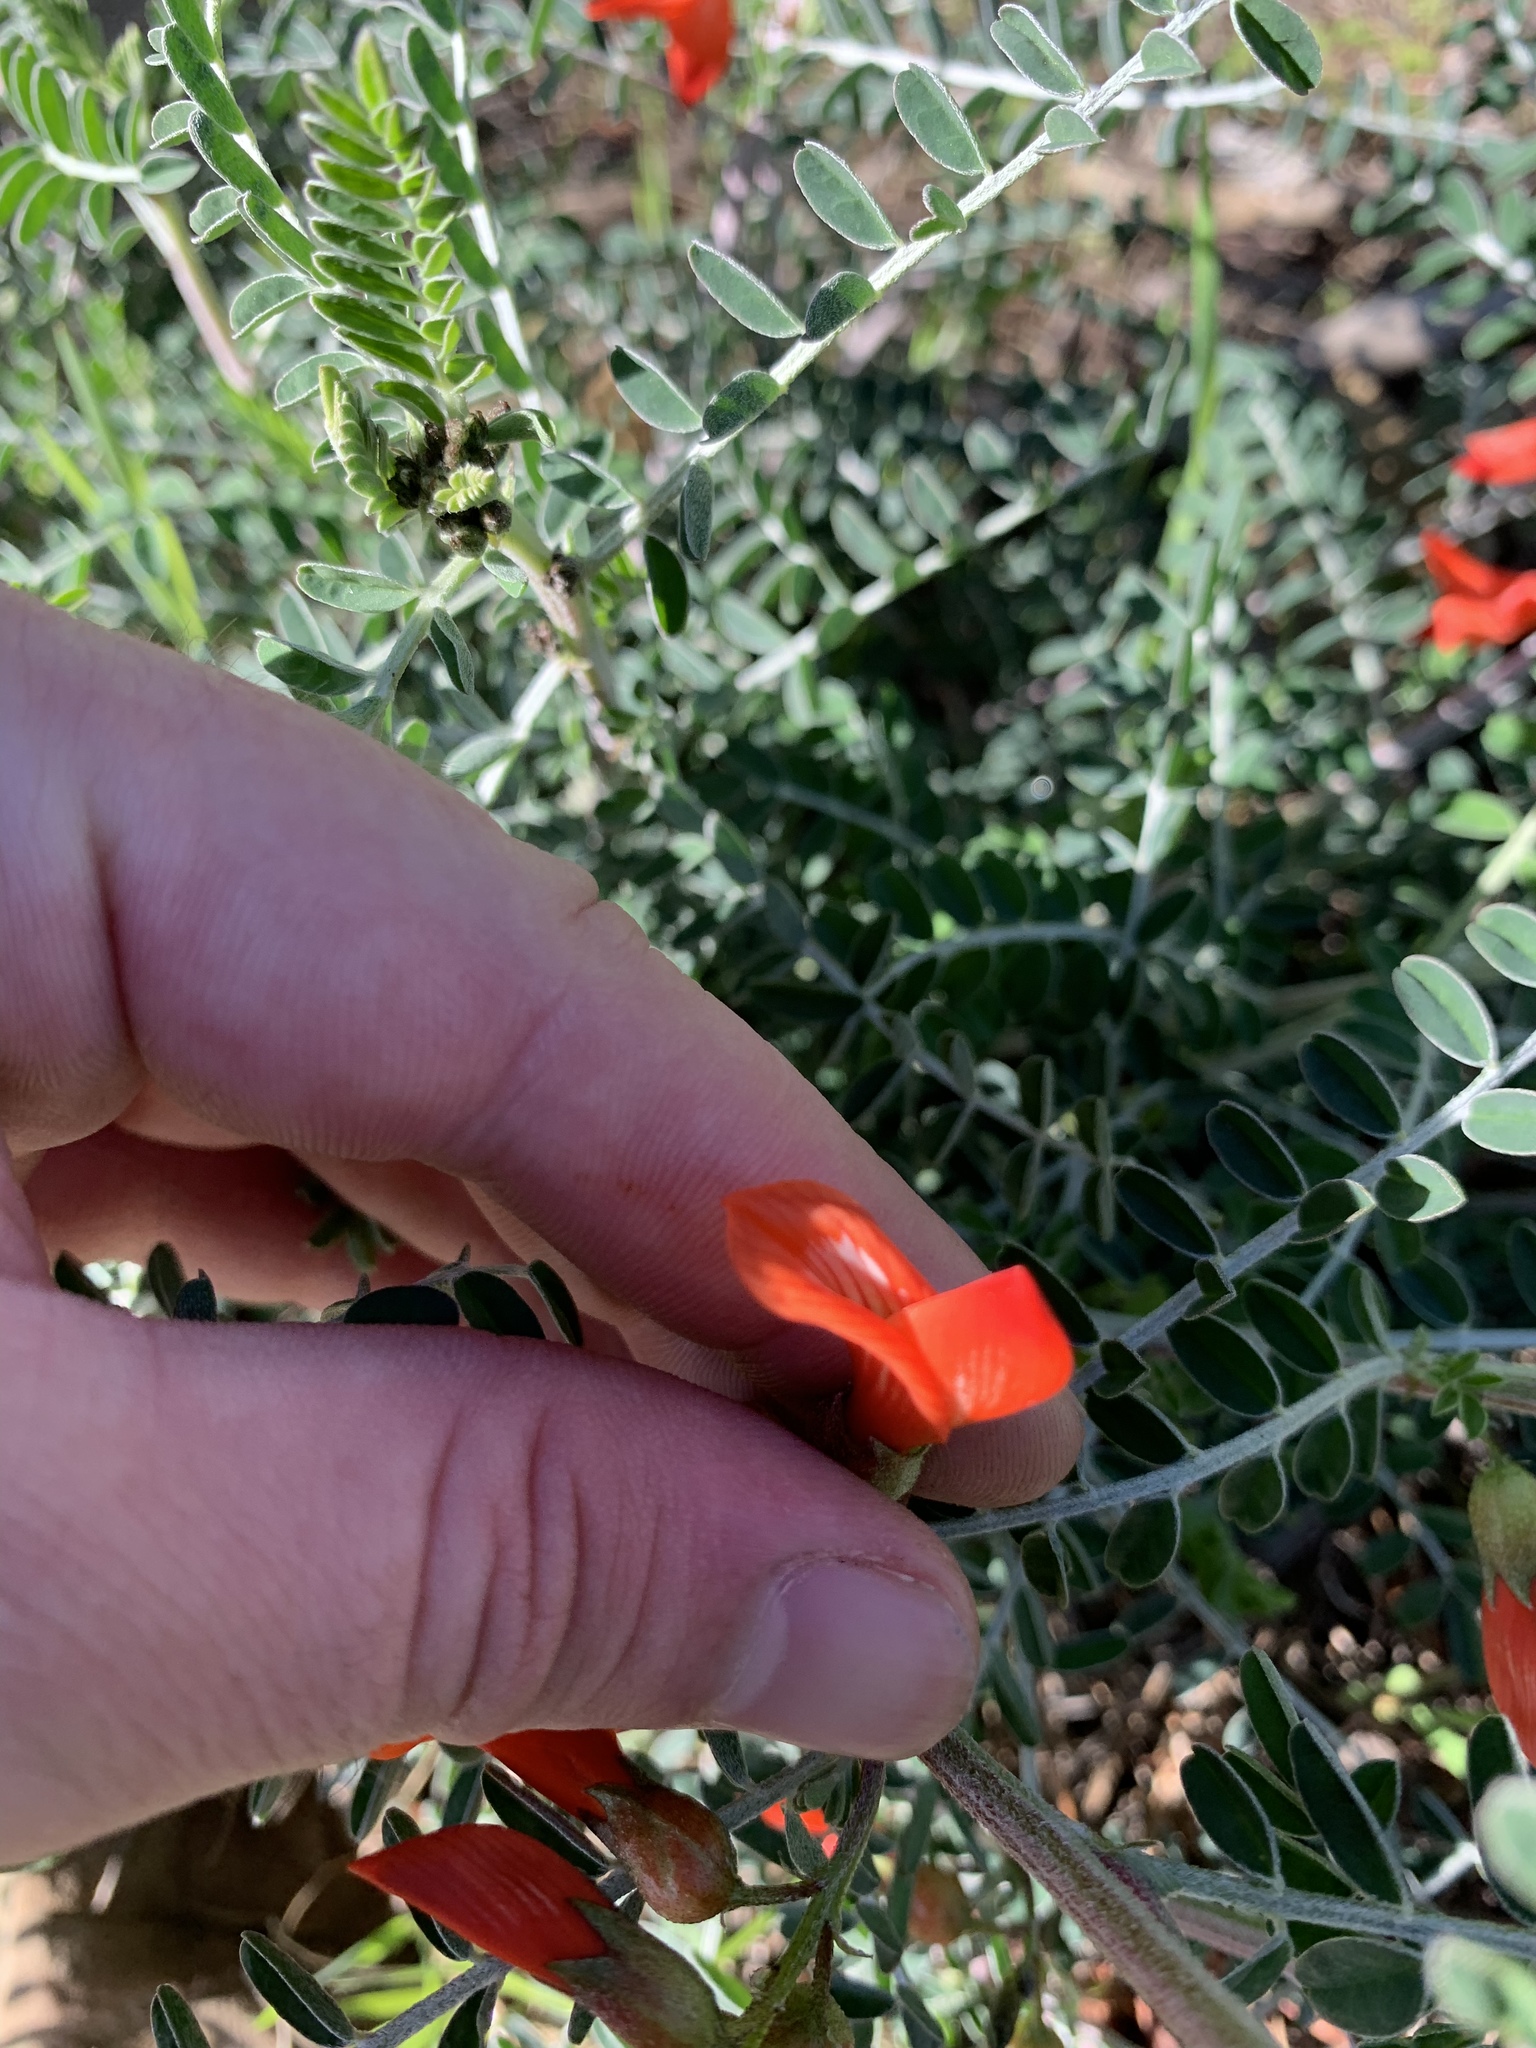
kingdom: Plantae
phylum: Tracheophyta
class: Magnoliopsida
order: Fabales
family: Fabaceae
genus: Lessertia
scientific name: Lessertia frutescens
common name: Balloon-pea
